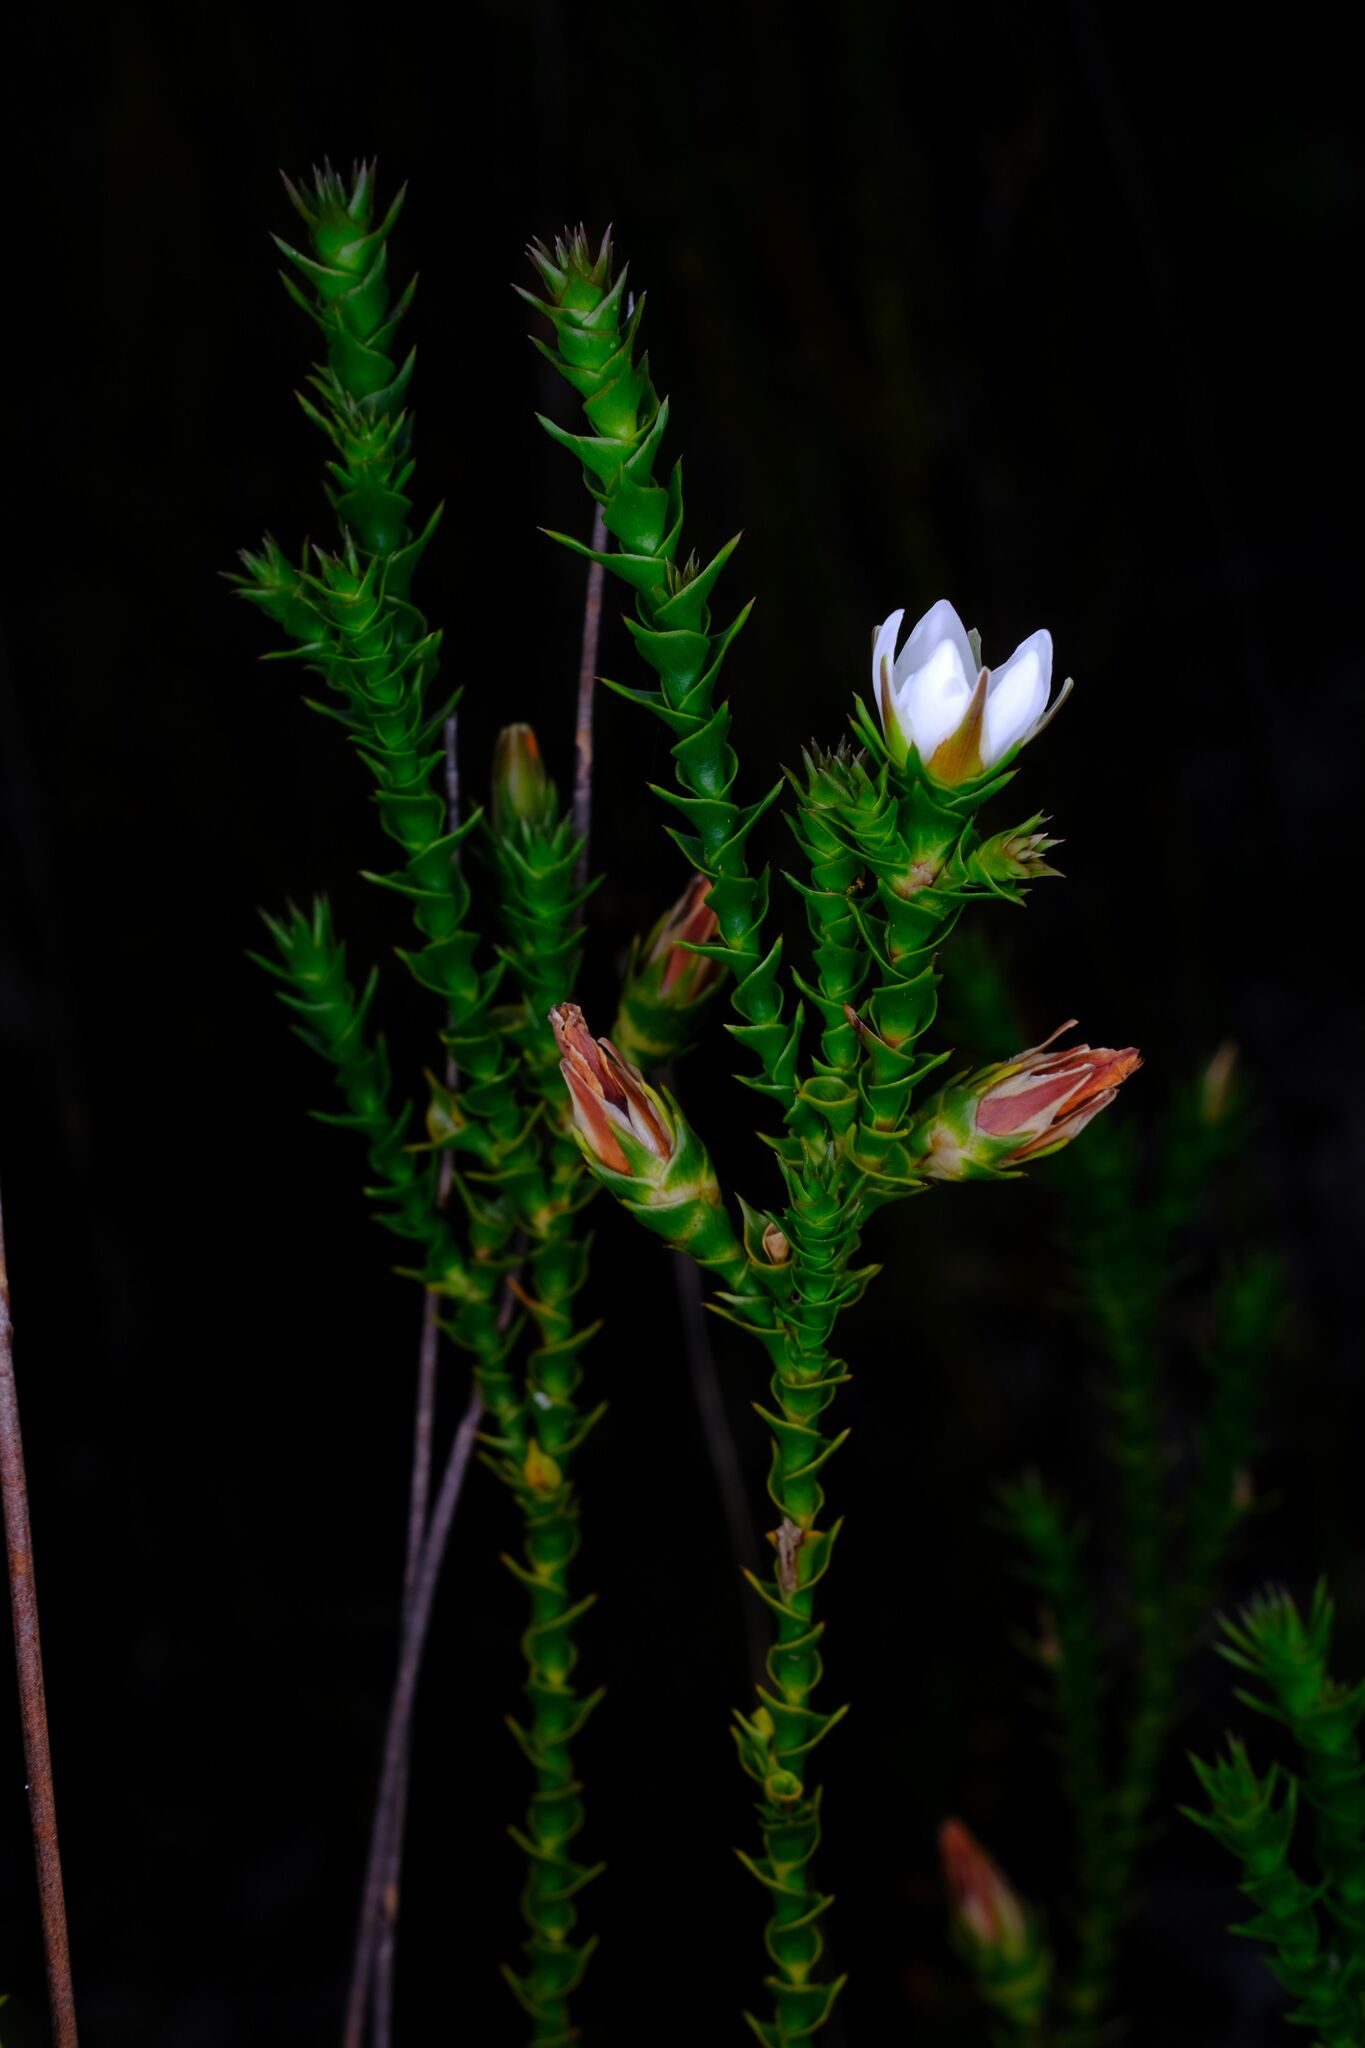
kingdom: Plantae
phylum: Tracheophyta
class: Magnoliopsida
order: Ericales
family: Ericaceae
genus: Sprengelia
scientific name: Sprengelia sprengelioides
